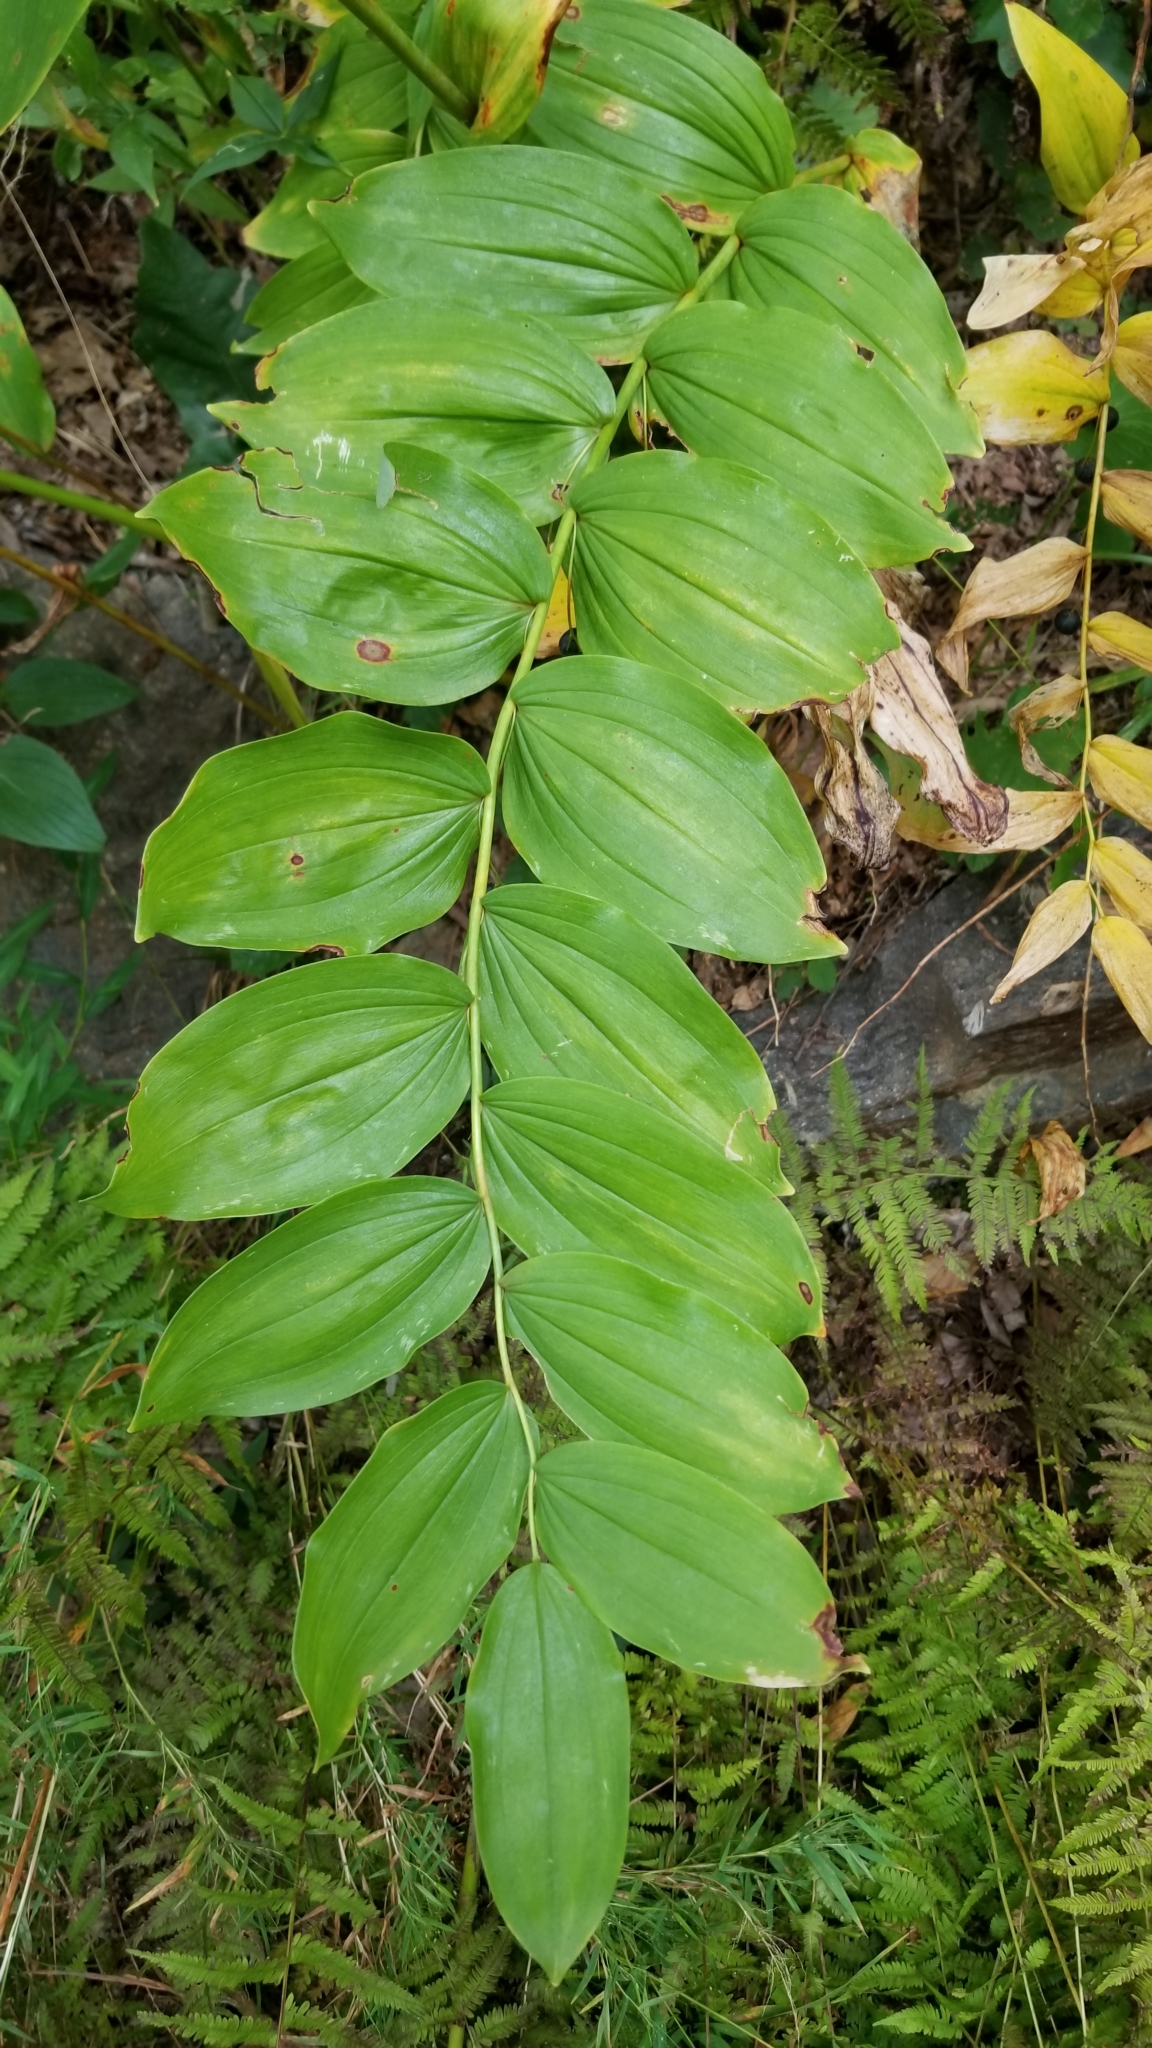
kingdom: Plantae
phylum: Tracheophyta
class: Liliopsida
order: Asparagales
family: Asparagaceae
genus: Polygonatum
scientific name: Polygonatum biflorum
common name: American solomon's-seal
